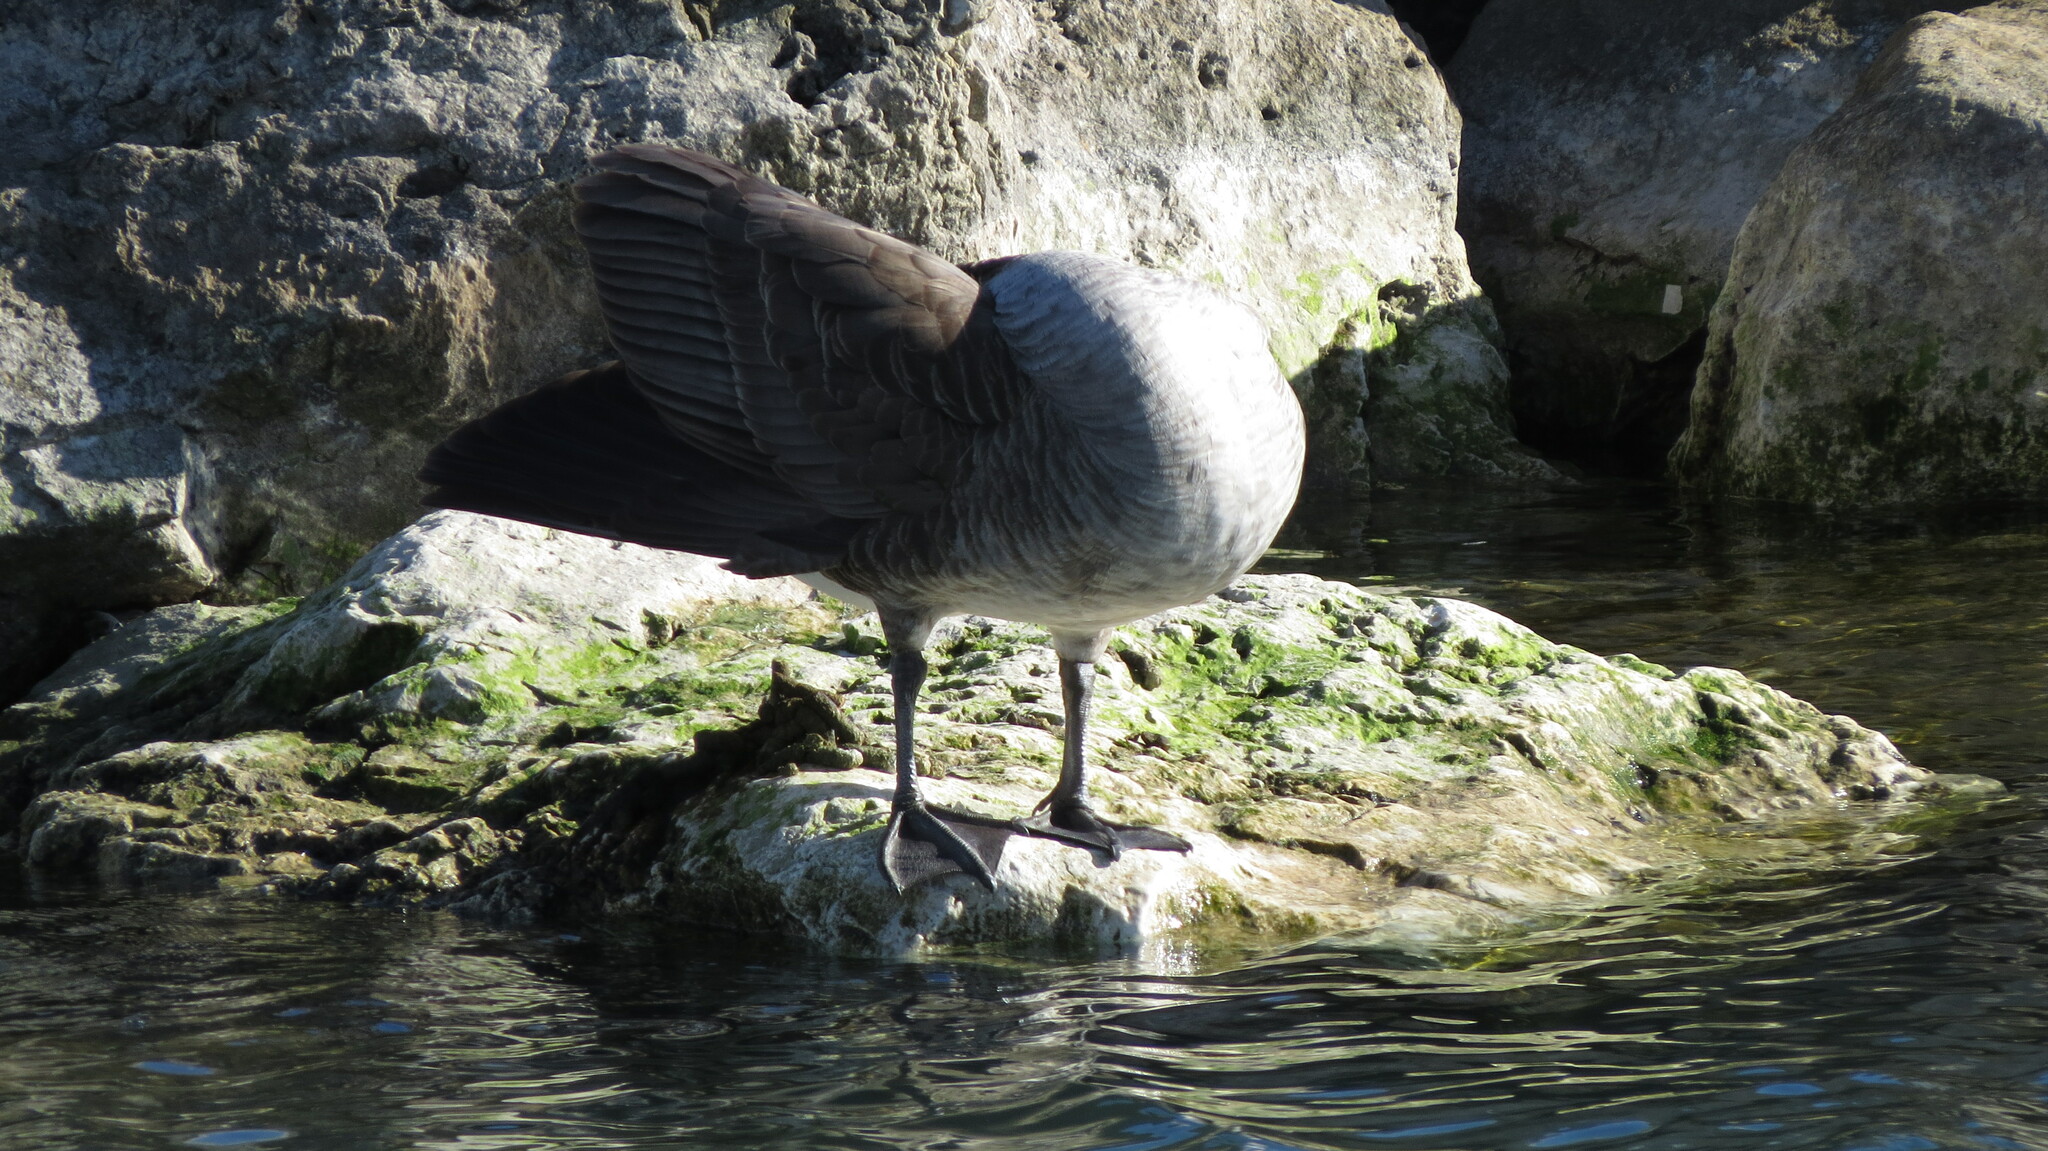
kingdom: Animalia
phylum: Chordata
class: Aves
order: Anseriformes
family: Anatidae
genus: Branta
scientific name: Branta canadensis
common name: Canada goose
